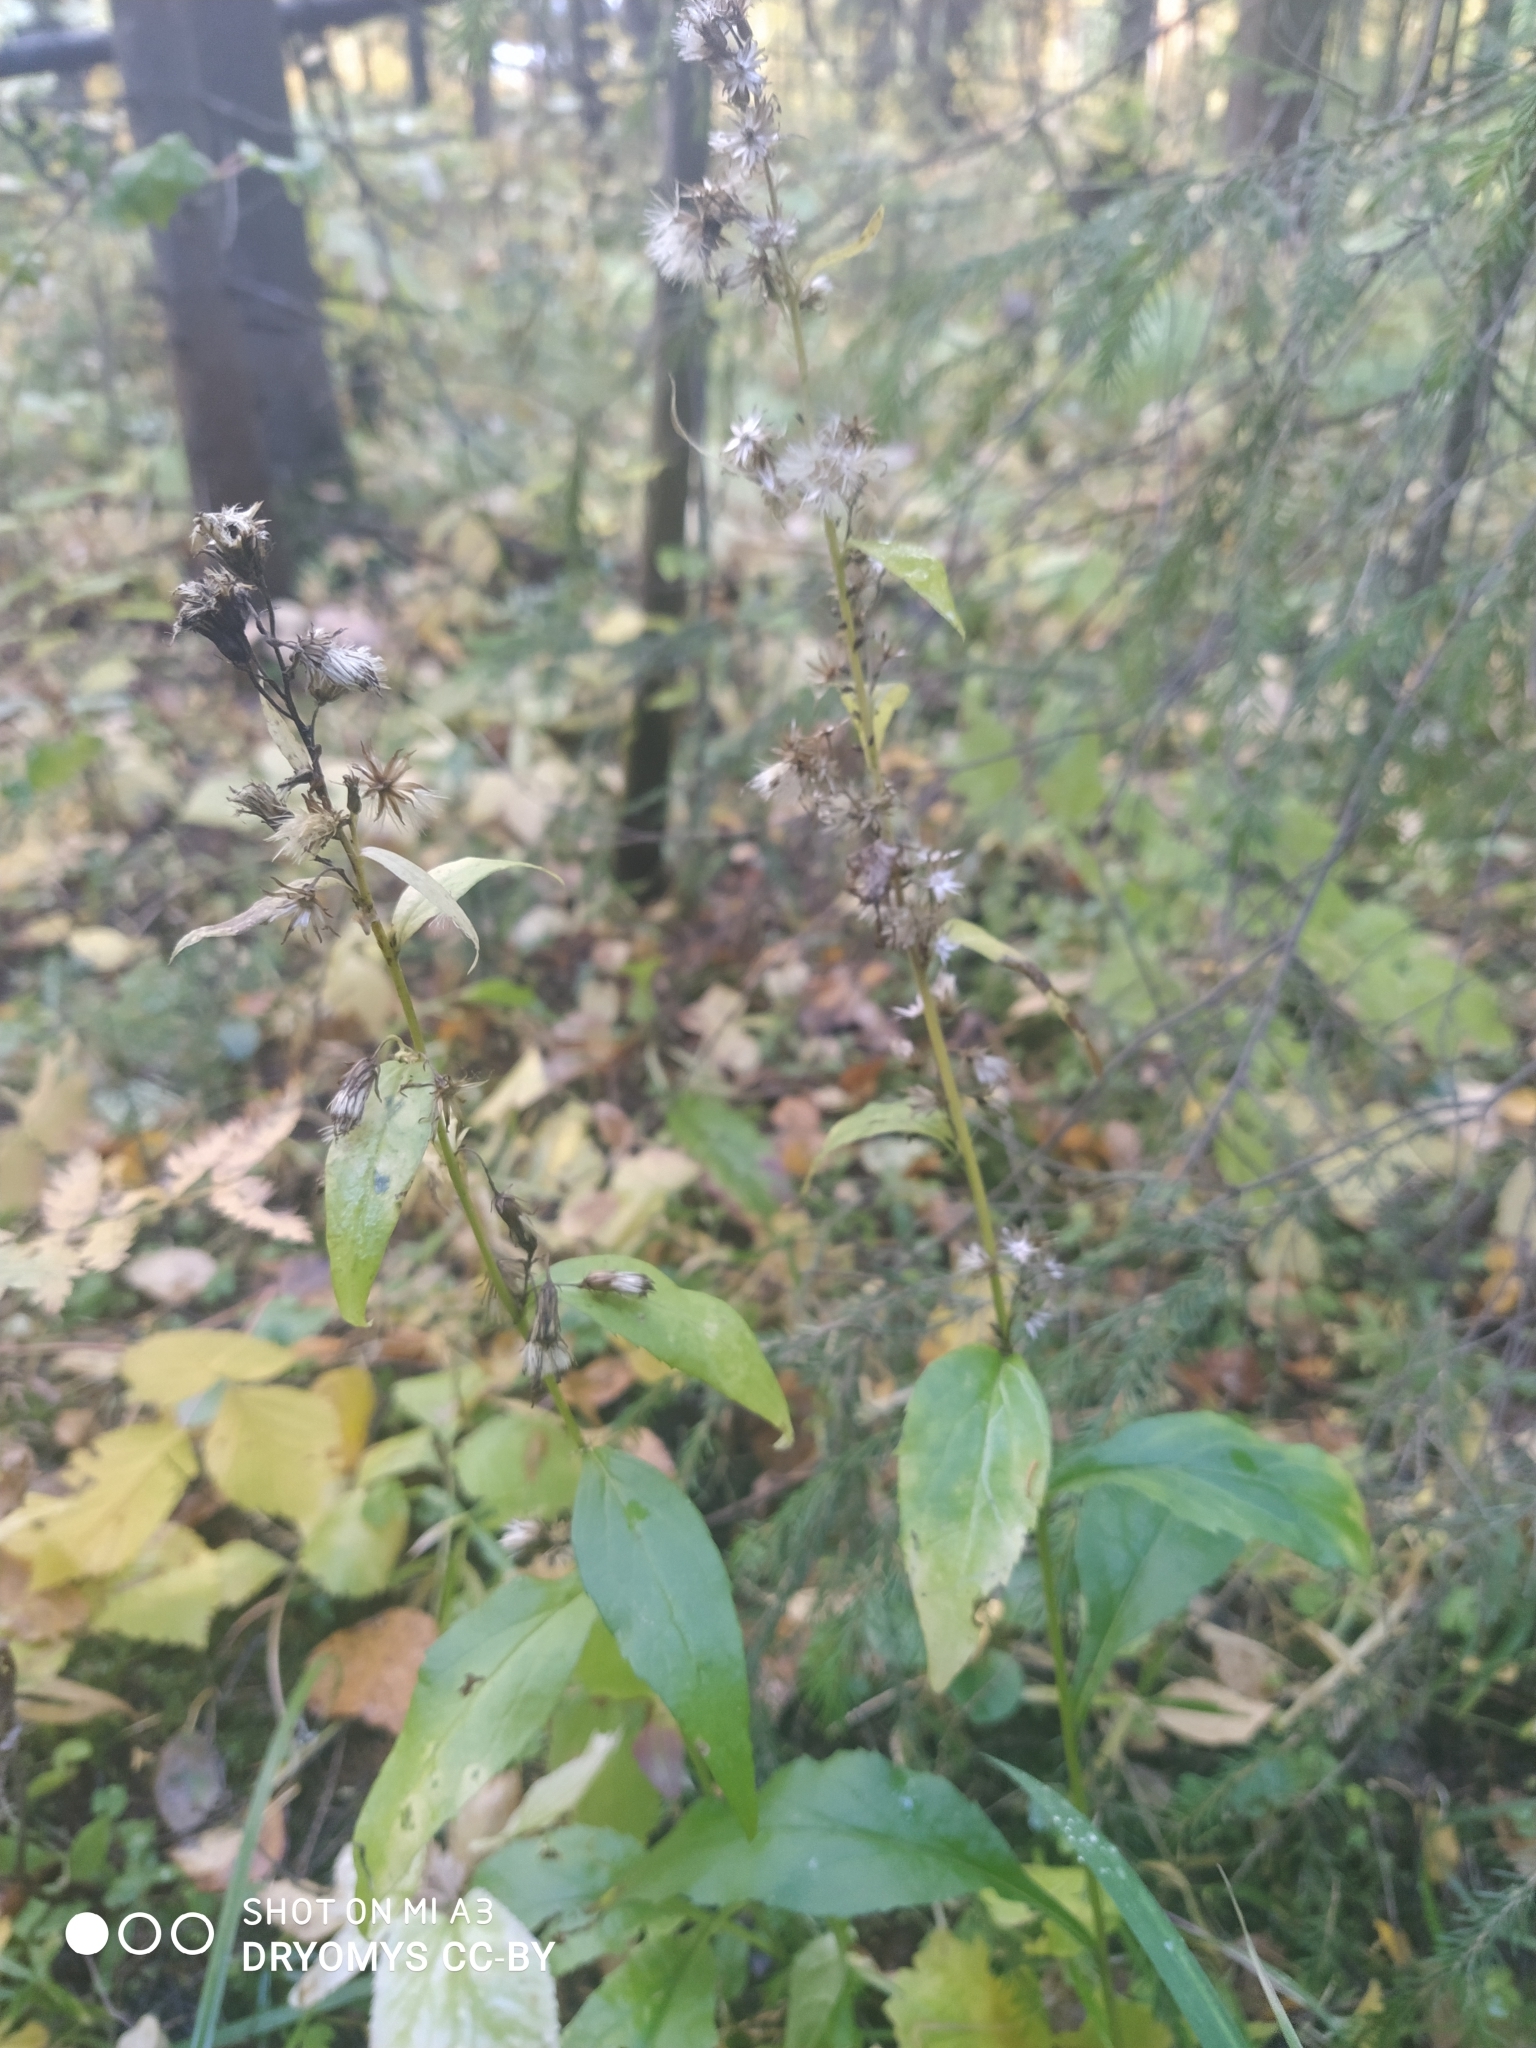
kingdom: Plantae
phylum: Tracheophyta
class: Magnoliopsida
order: Asterales
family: Asteraceae
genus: Solidago
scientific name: Solidago virgaurea
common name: Goldenrod
